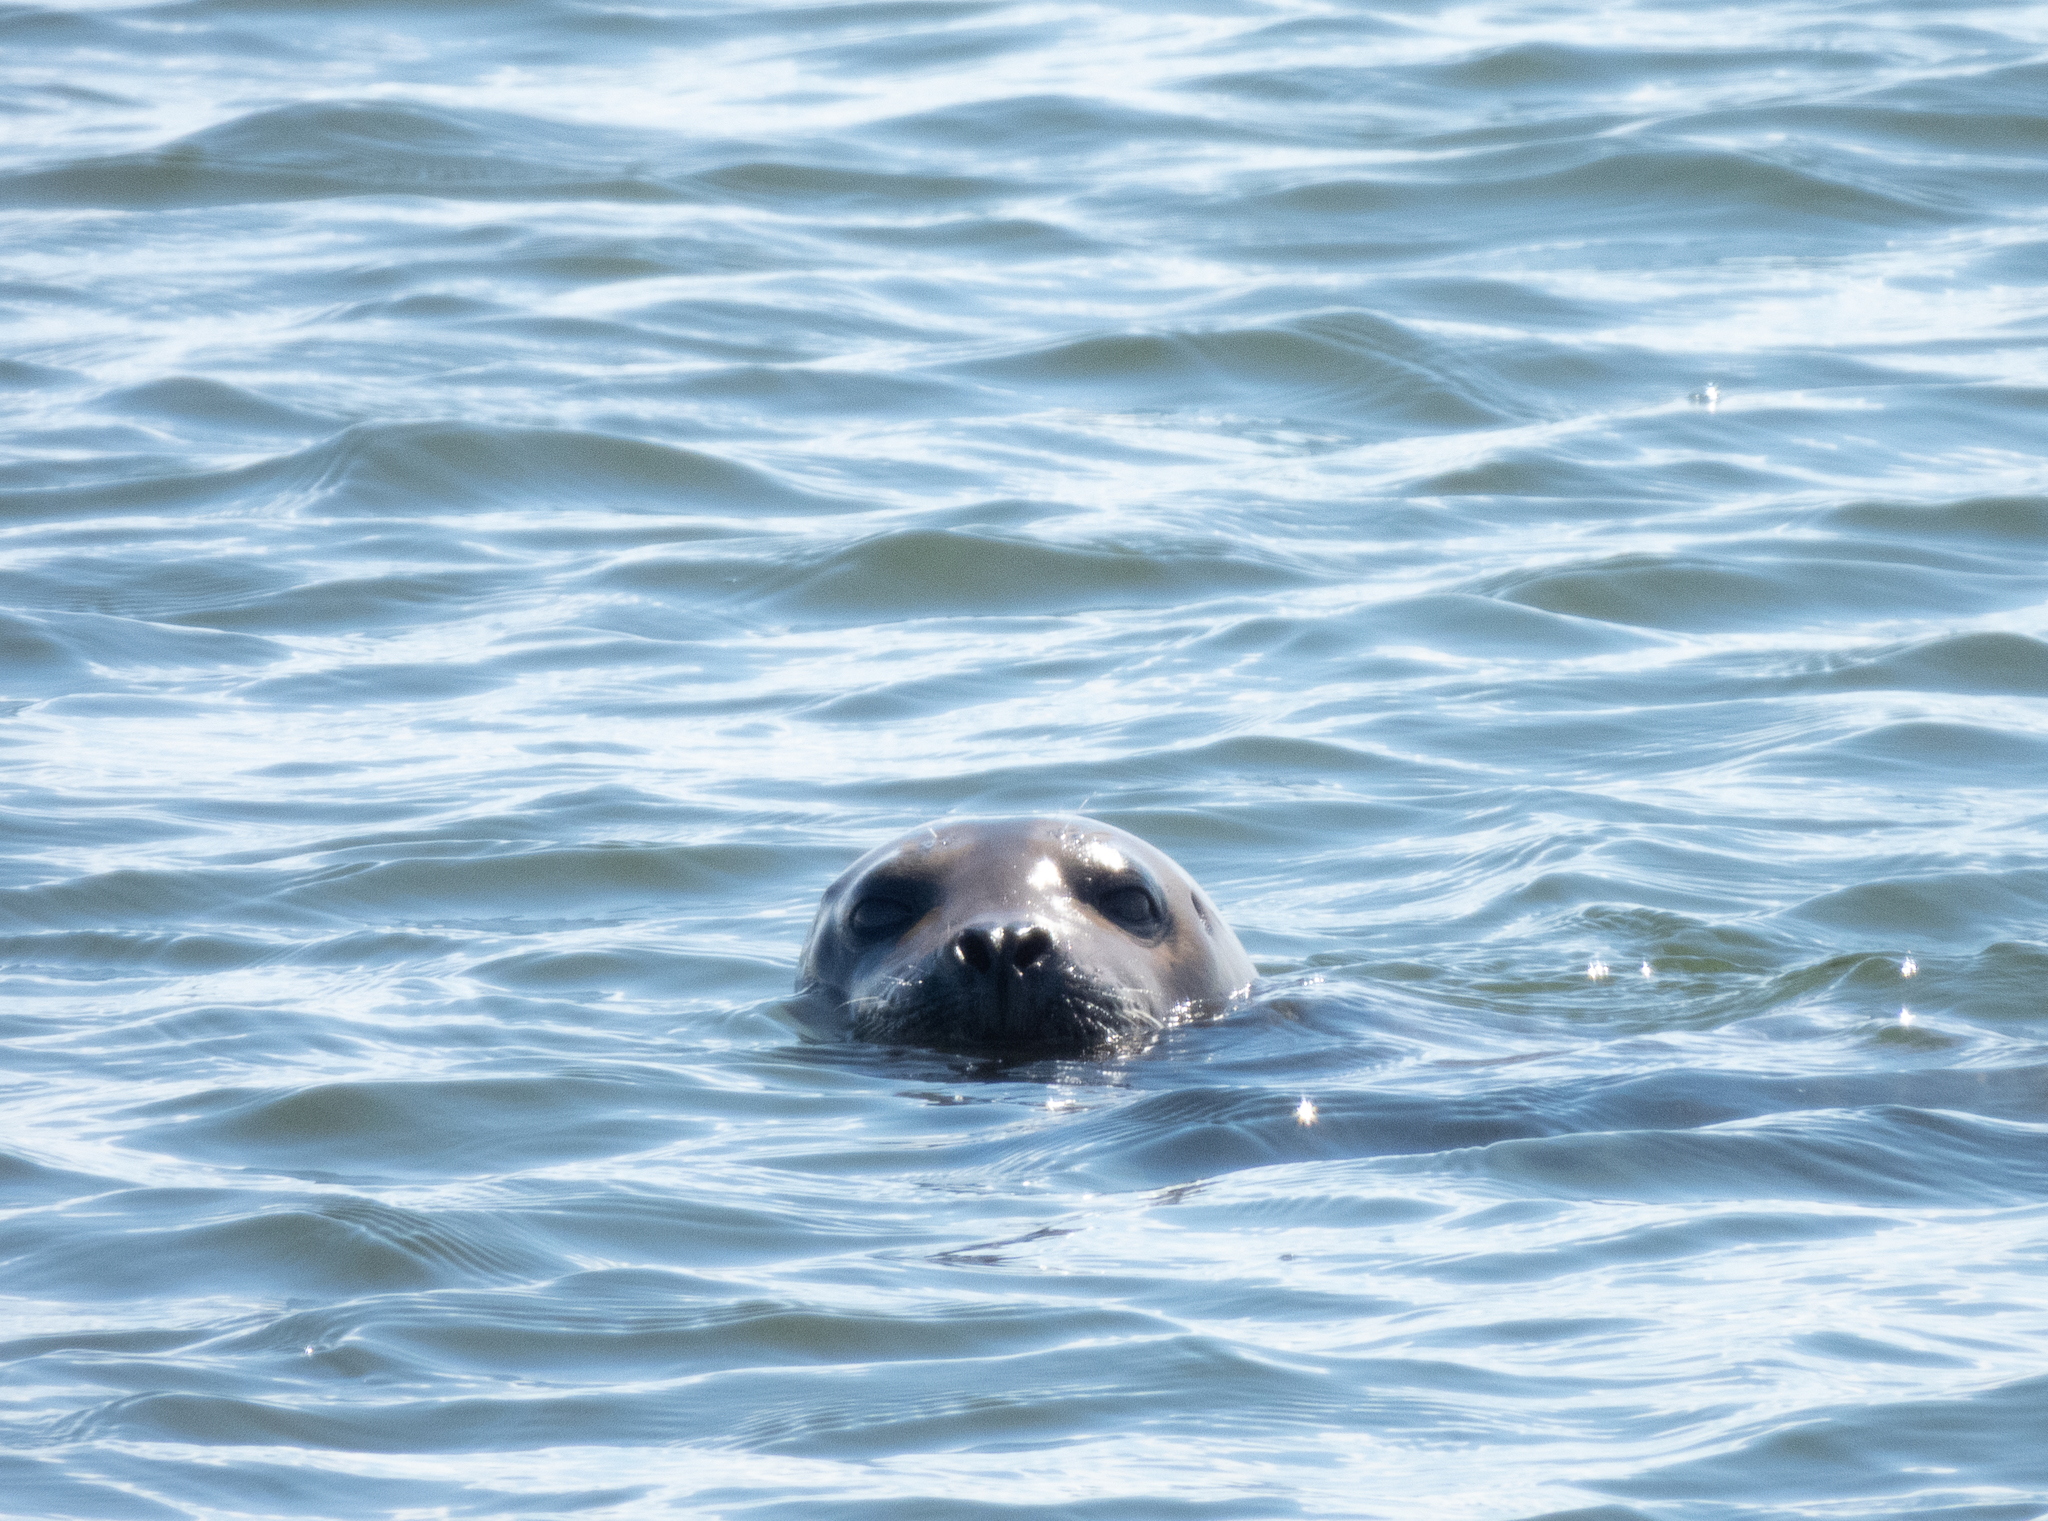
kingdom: Animalia
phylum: Chordata
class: Mammalia
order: Carnivora
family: Phocidae
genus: Phoca
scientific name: Phoca vitulina
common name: Harbor seal
